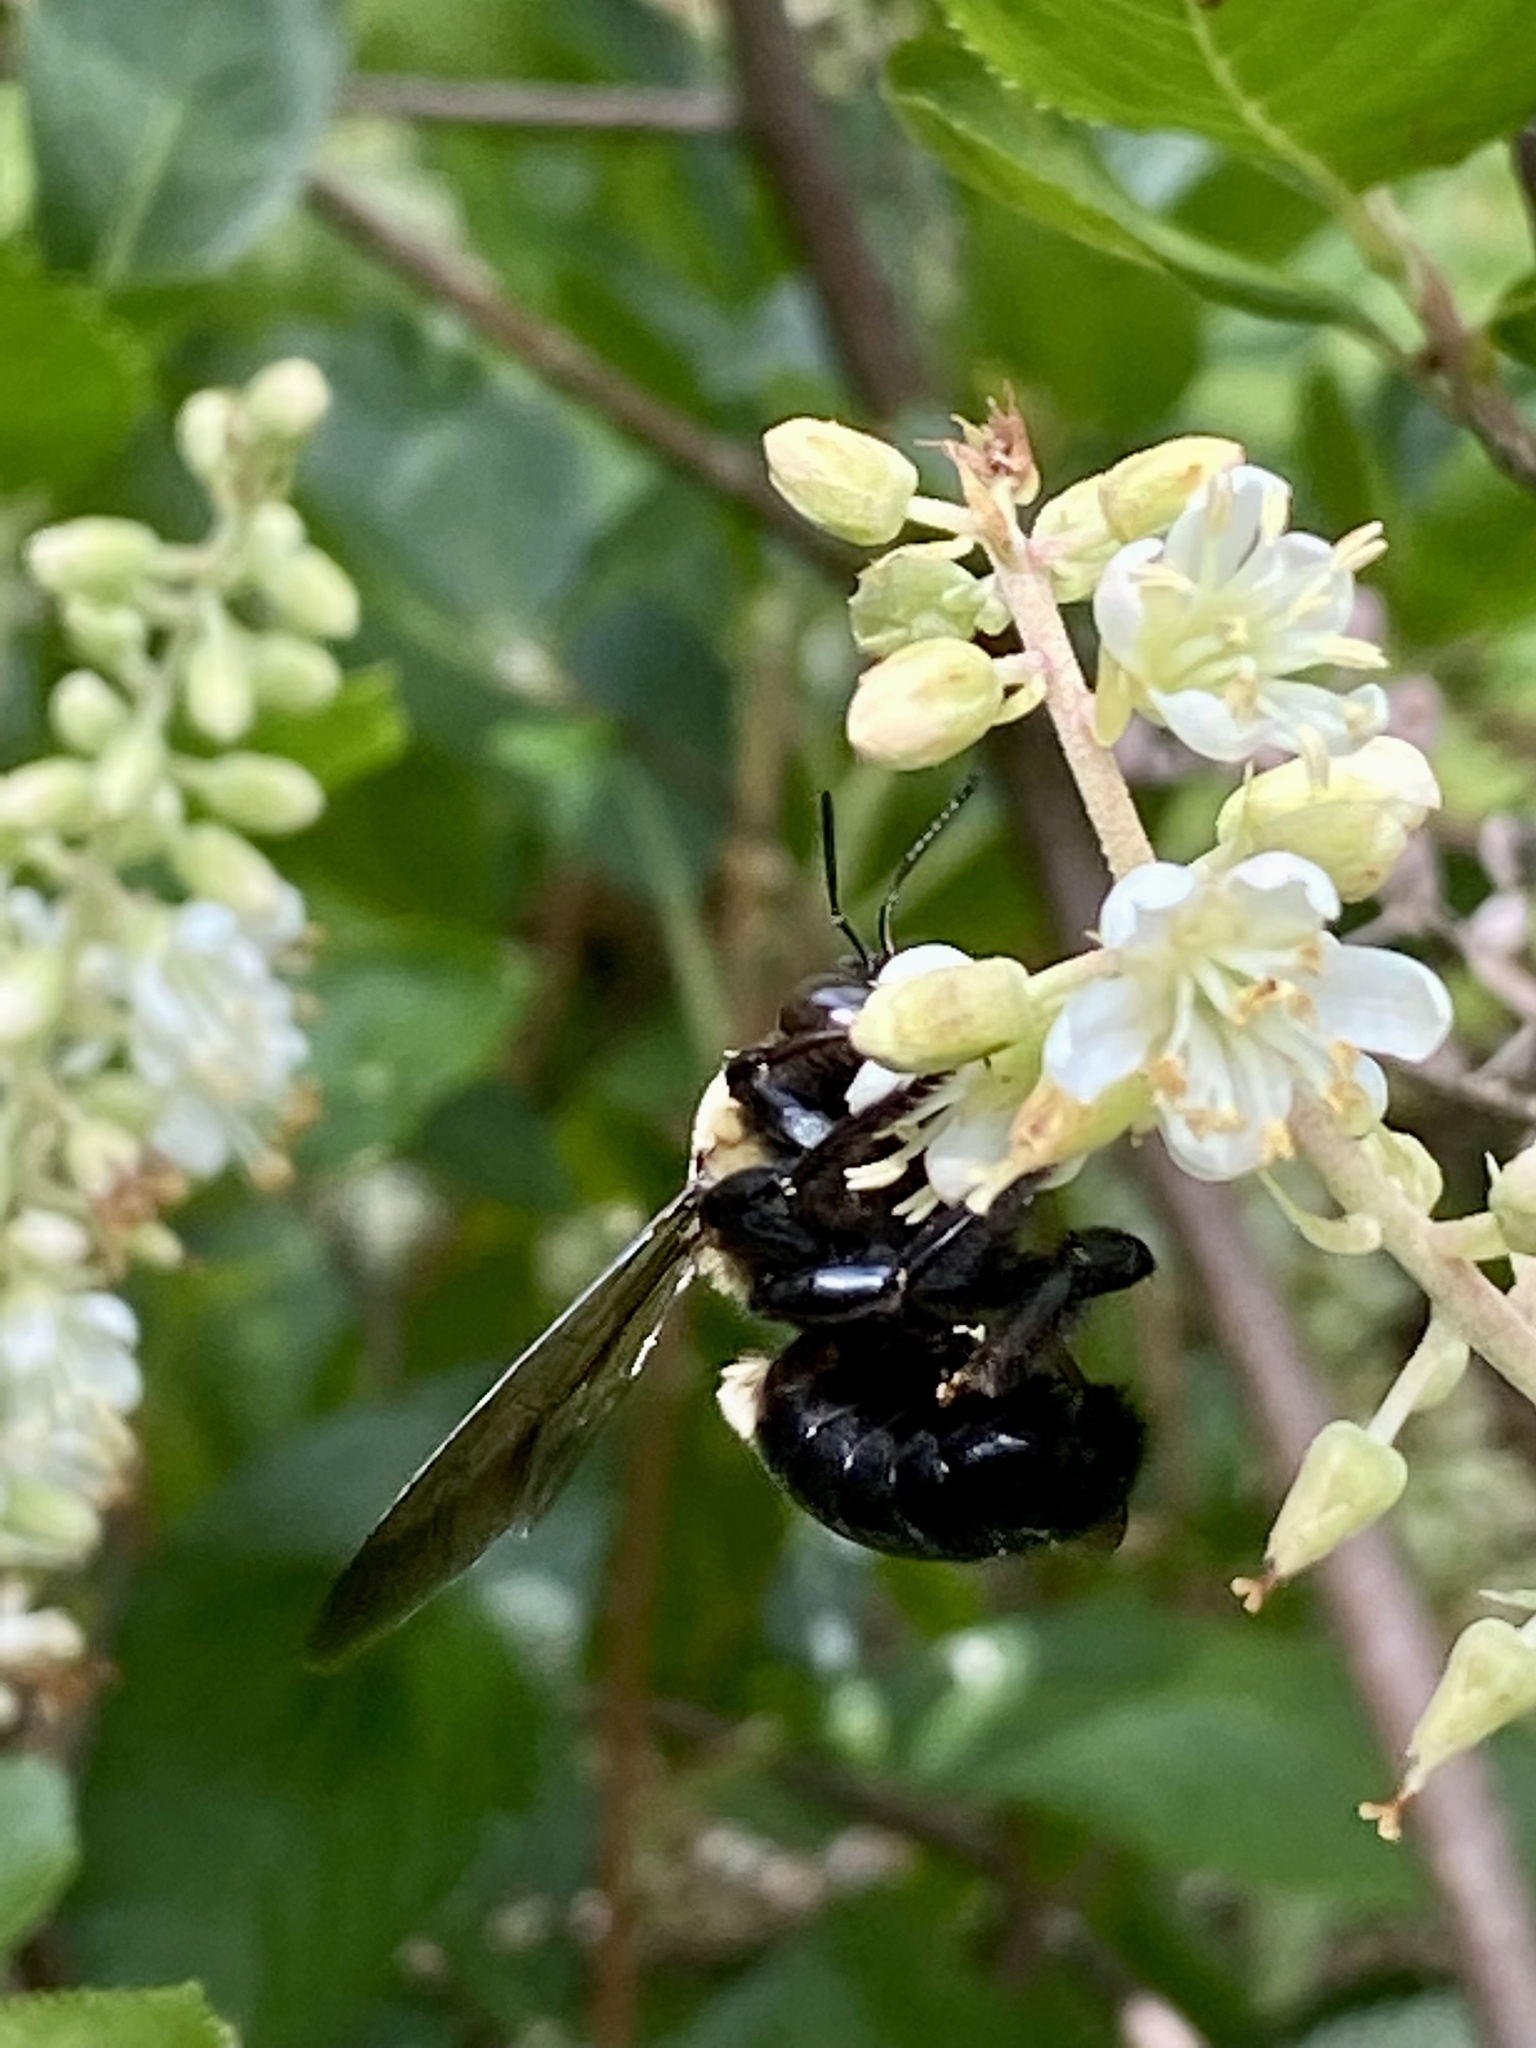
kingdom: Animalia
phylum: Arthropoda
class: Insecta
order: Hymenoptera
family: Apidae
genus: Xylocopa
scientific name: Xylocopa virginica
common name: Carpenter bee
